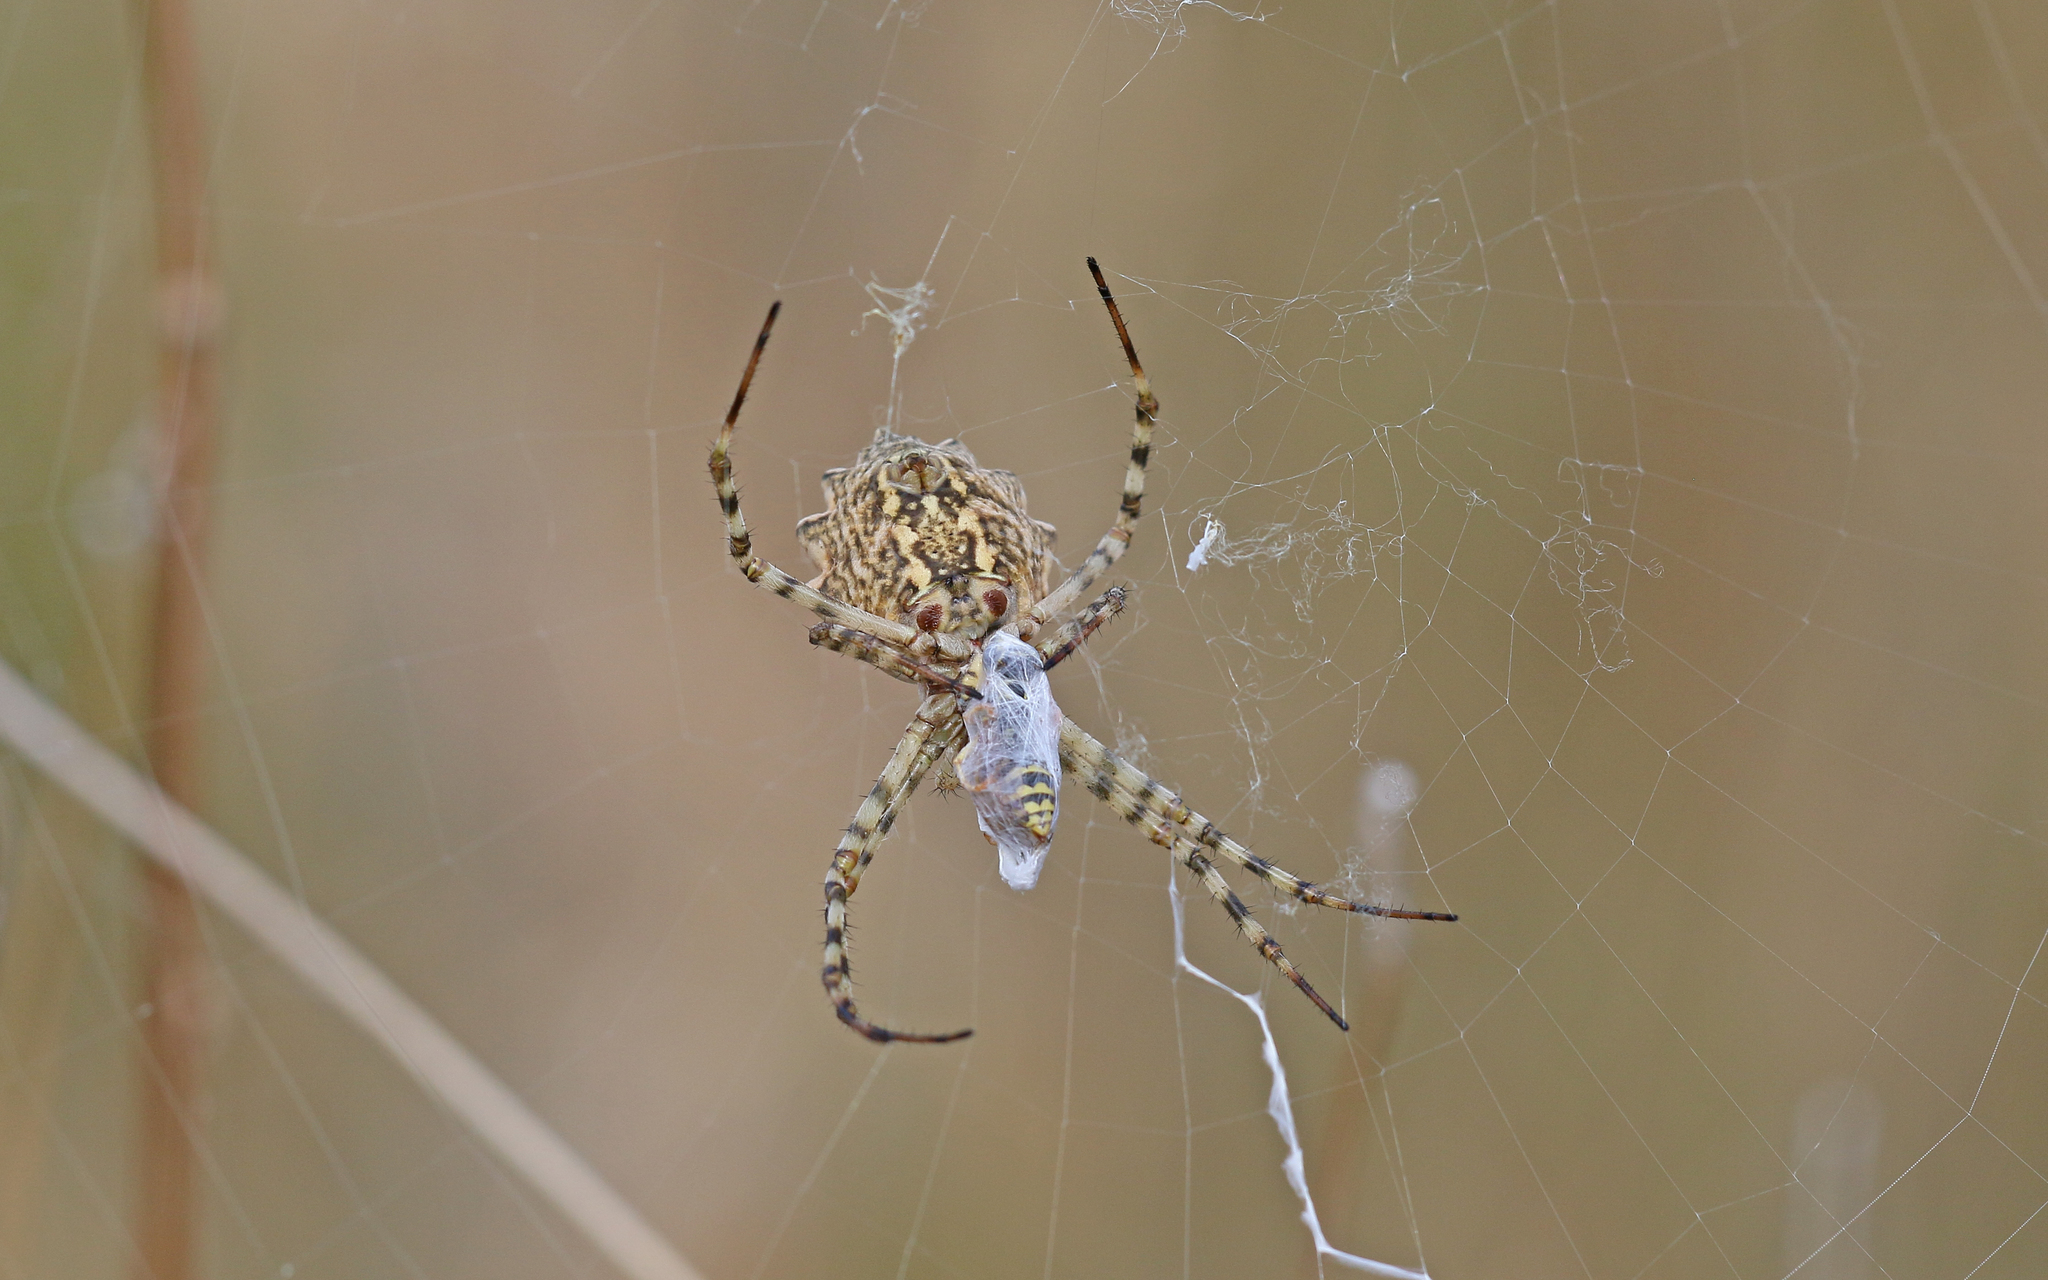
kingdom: Animalia
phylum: Arthropoda
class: Arachnida
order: Araneae
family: Araneidae
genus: Argiope
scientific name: Argiope lobata
